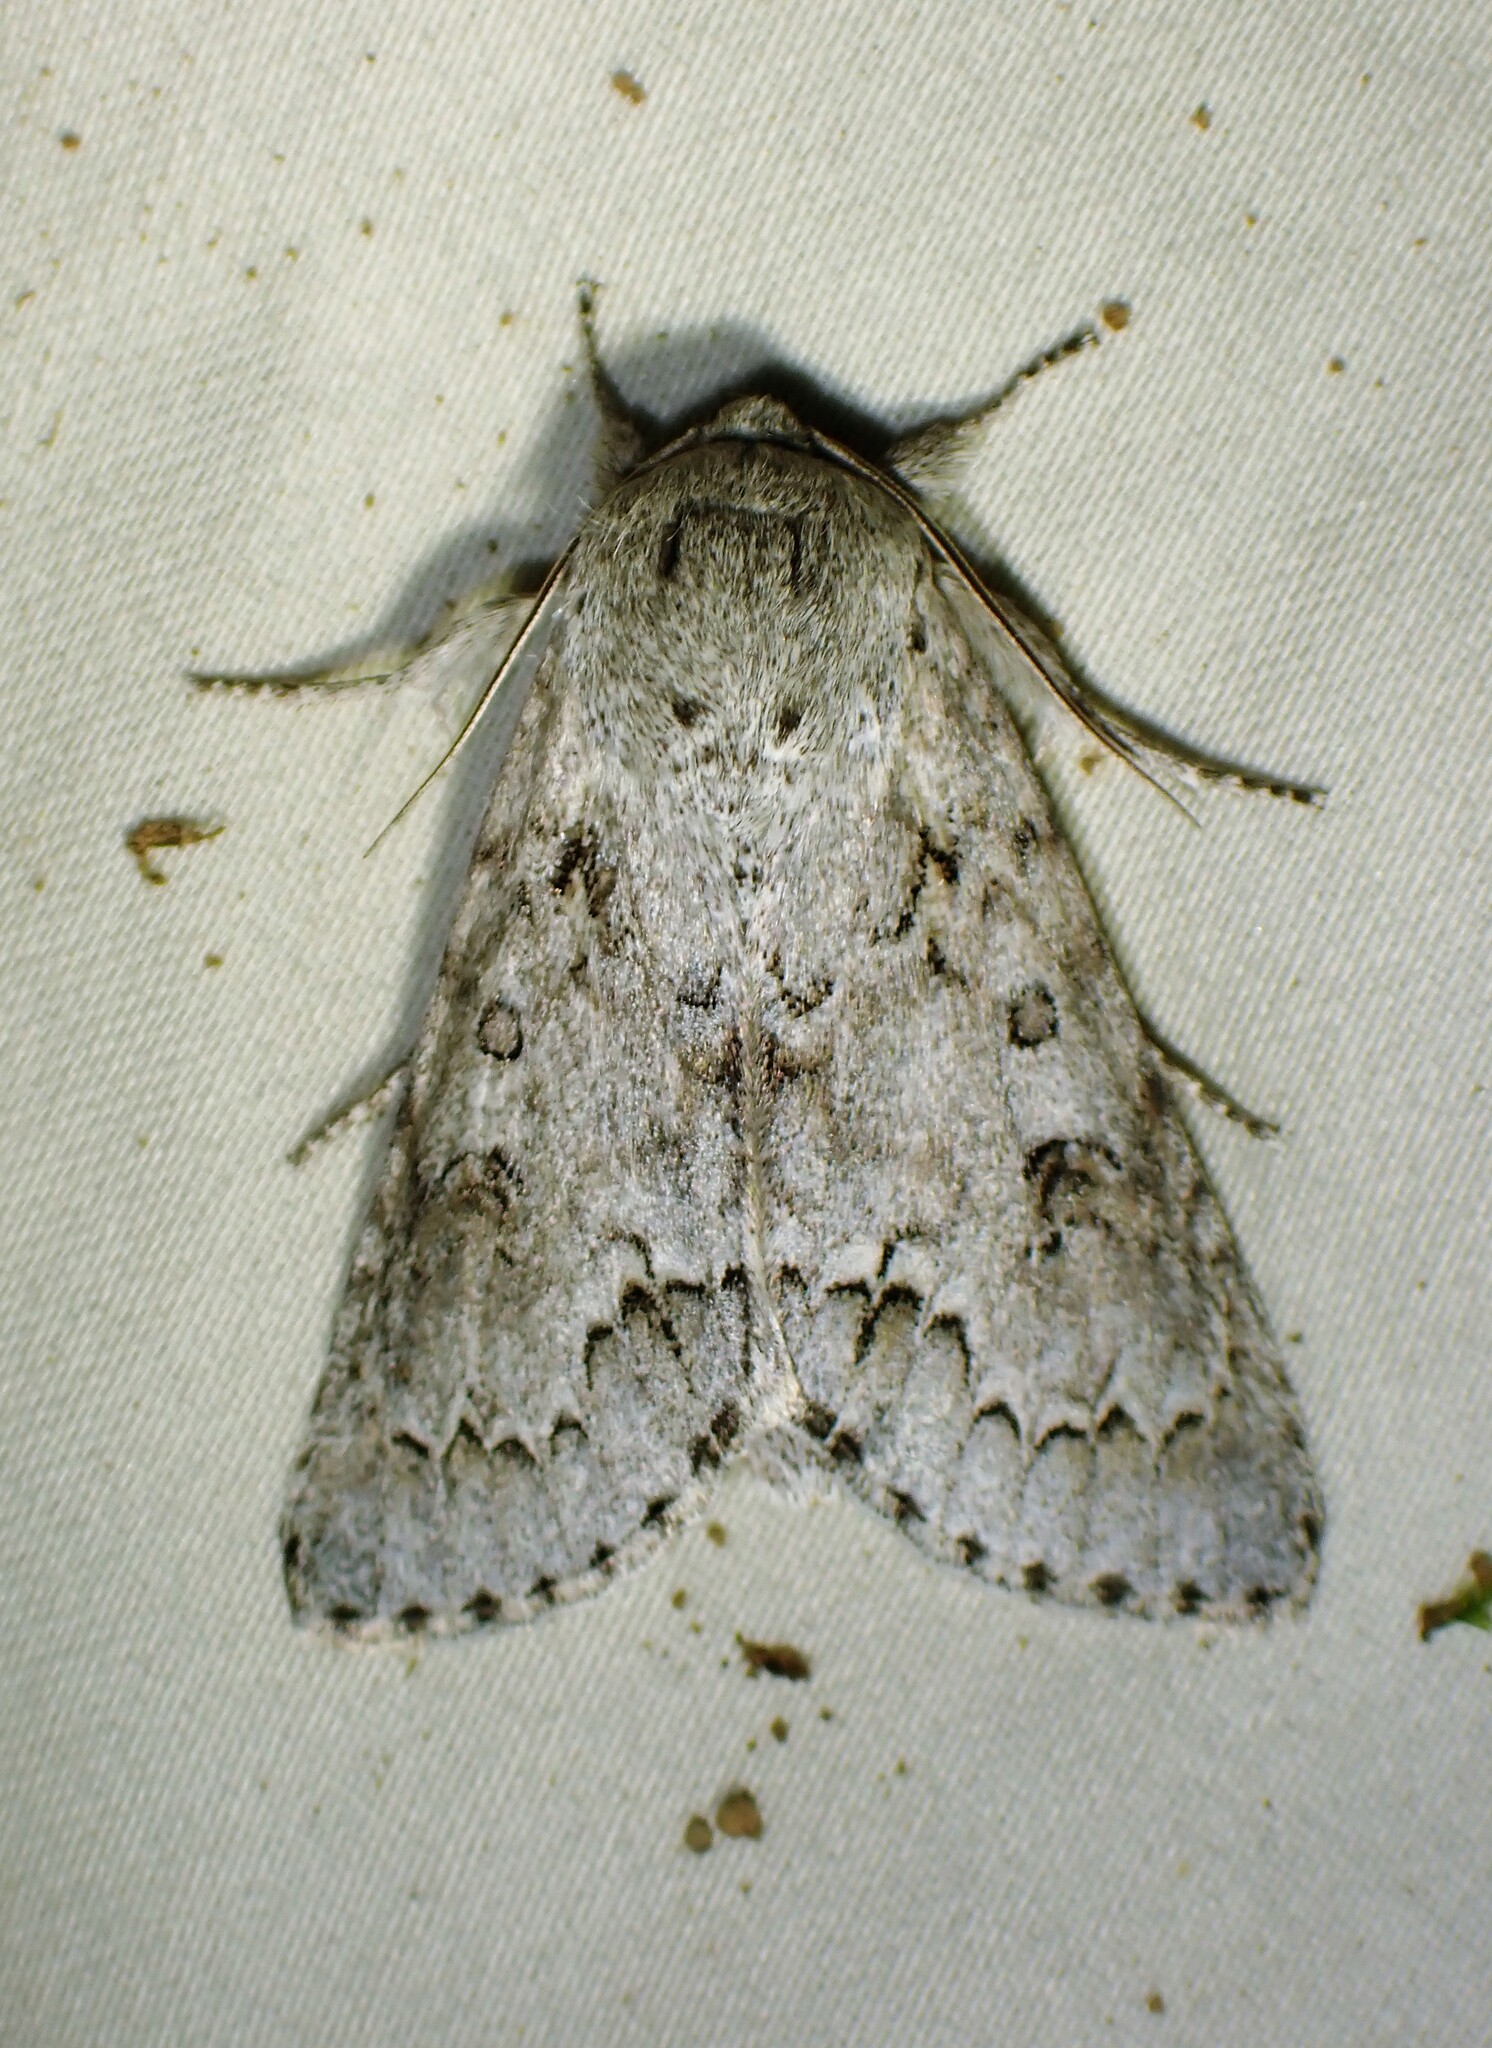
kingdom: Animalia
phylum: Arthropoda
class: Insecta
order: Lepidoptera
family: Noctuidae
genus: Acronicta
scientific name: Acronicta insita
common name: Large gray dagger
